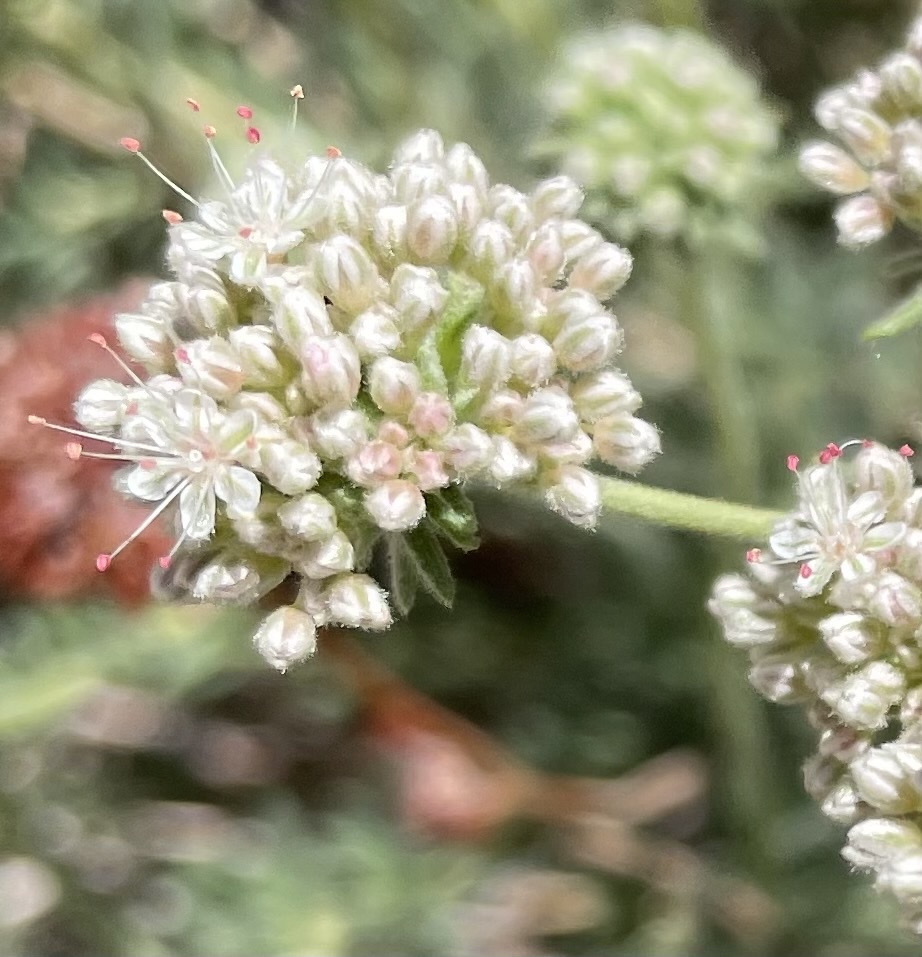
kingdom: Plantae
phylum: Tracheophyta
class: Magnoliopsida
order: Caryophyllales
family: Polygonaceae
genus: Eriogonum
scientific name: Eriogonum fasciculatum
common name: California wild buckwheat
